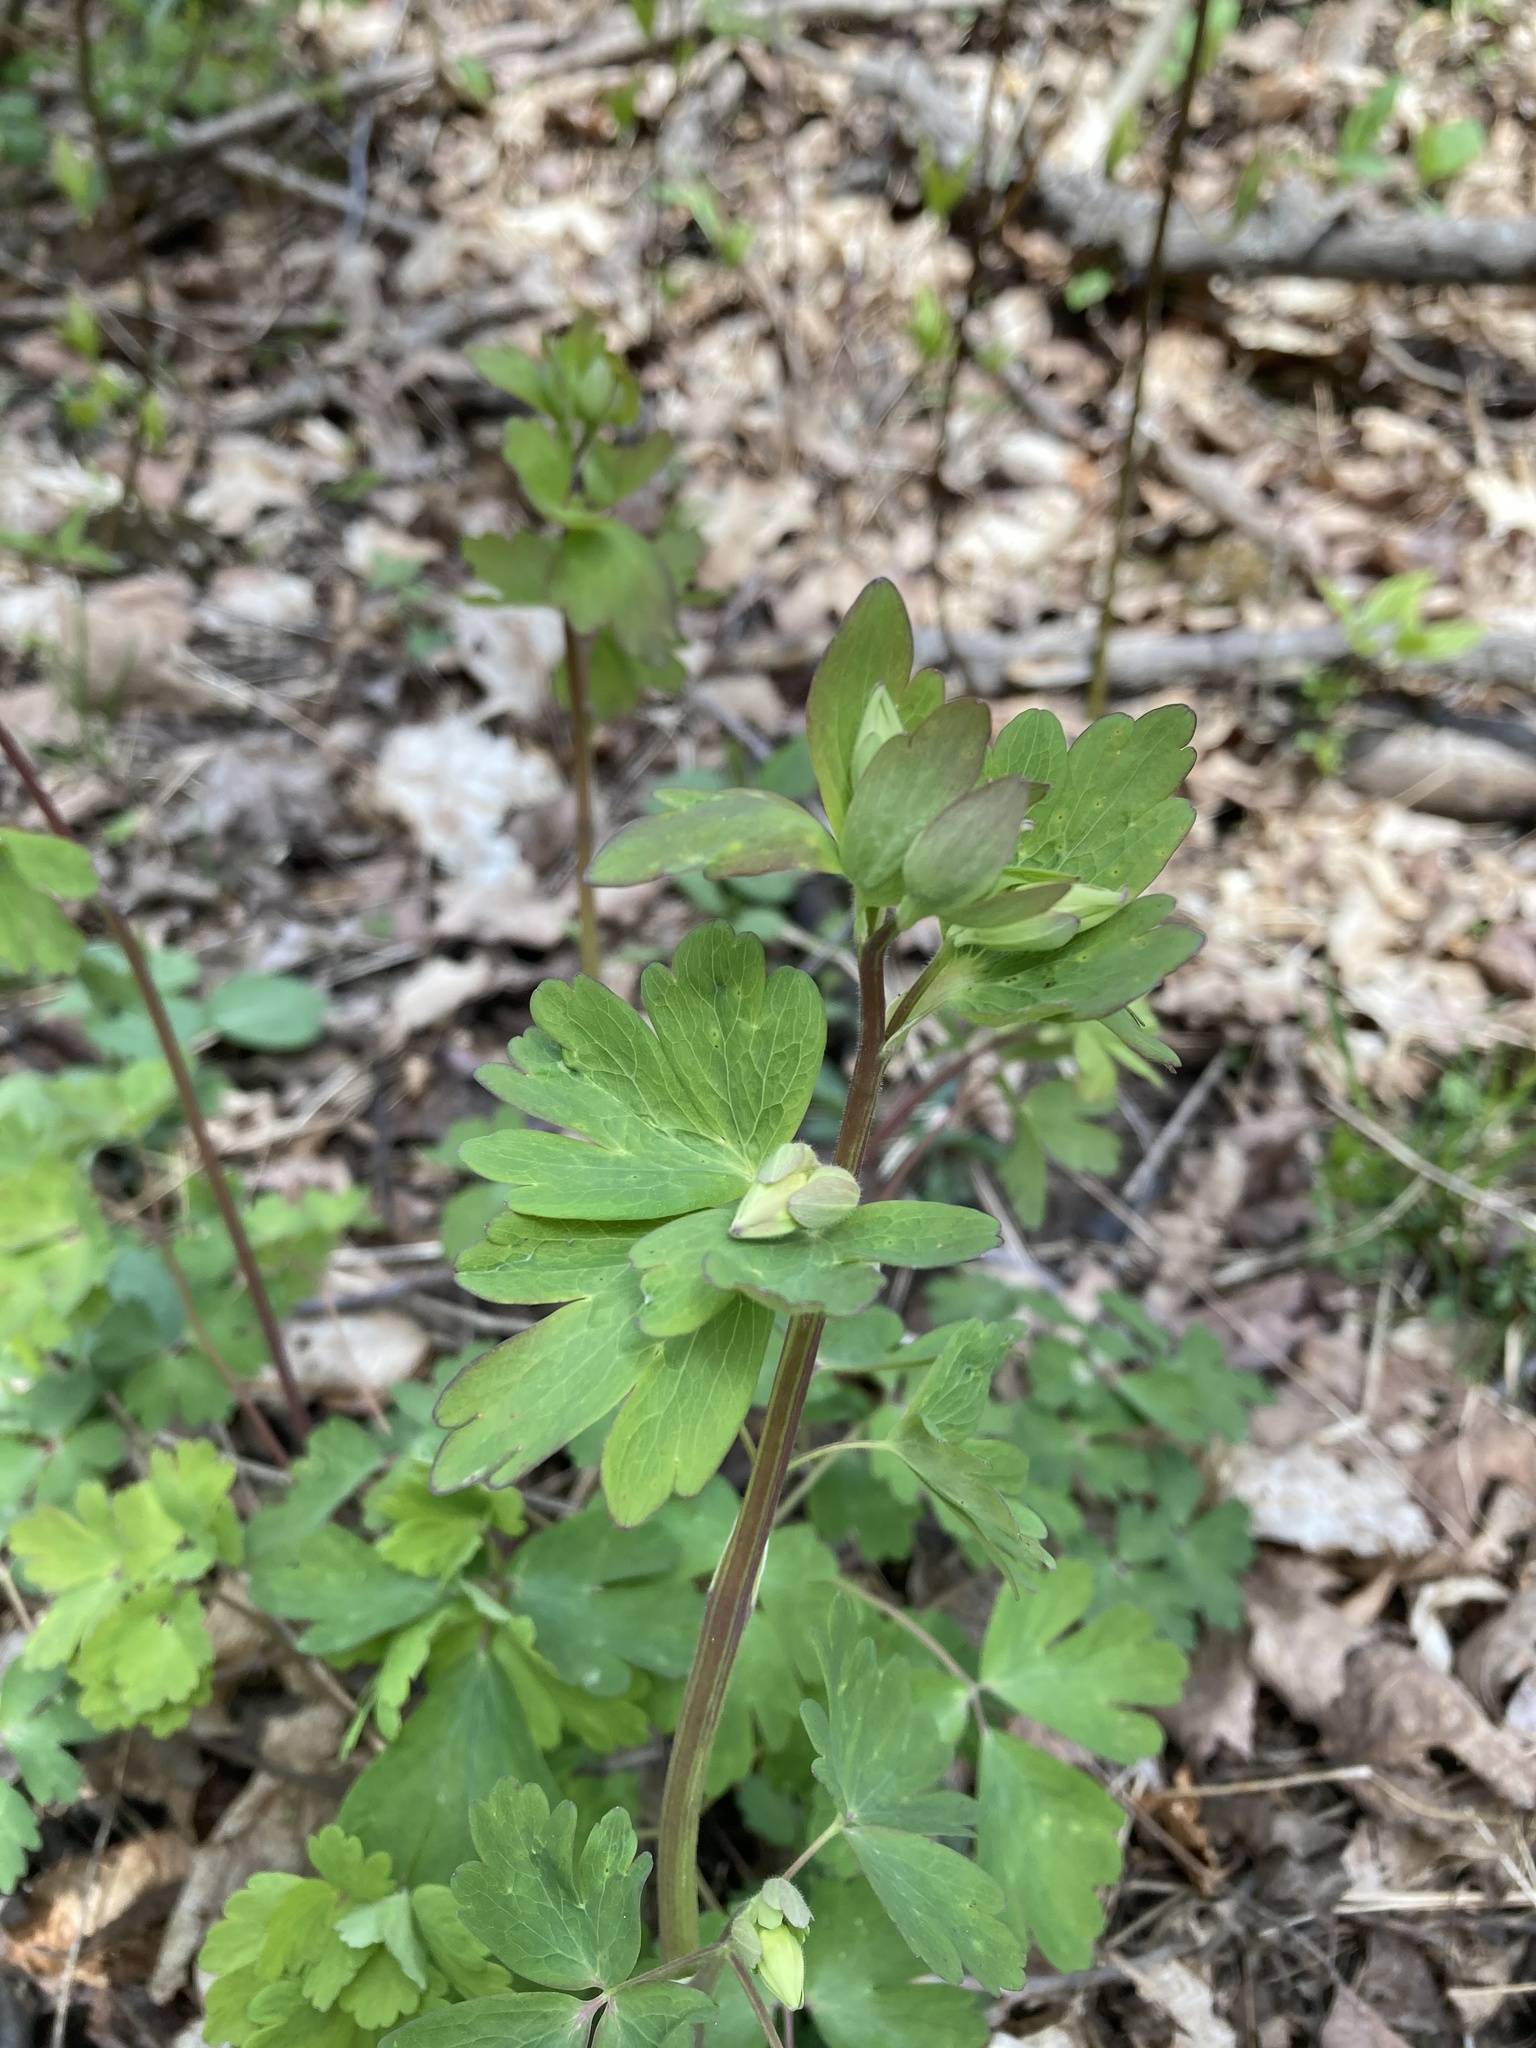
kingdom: Plantae
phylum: Tracheophyta
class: Magnoliopsida
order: Ranunculales
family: Ranunculaceae
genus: Aquilegia
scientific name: Aquilegia canadensis
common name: American columbine
